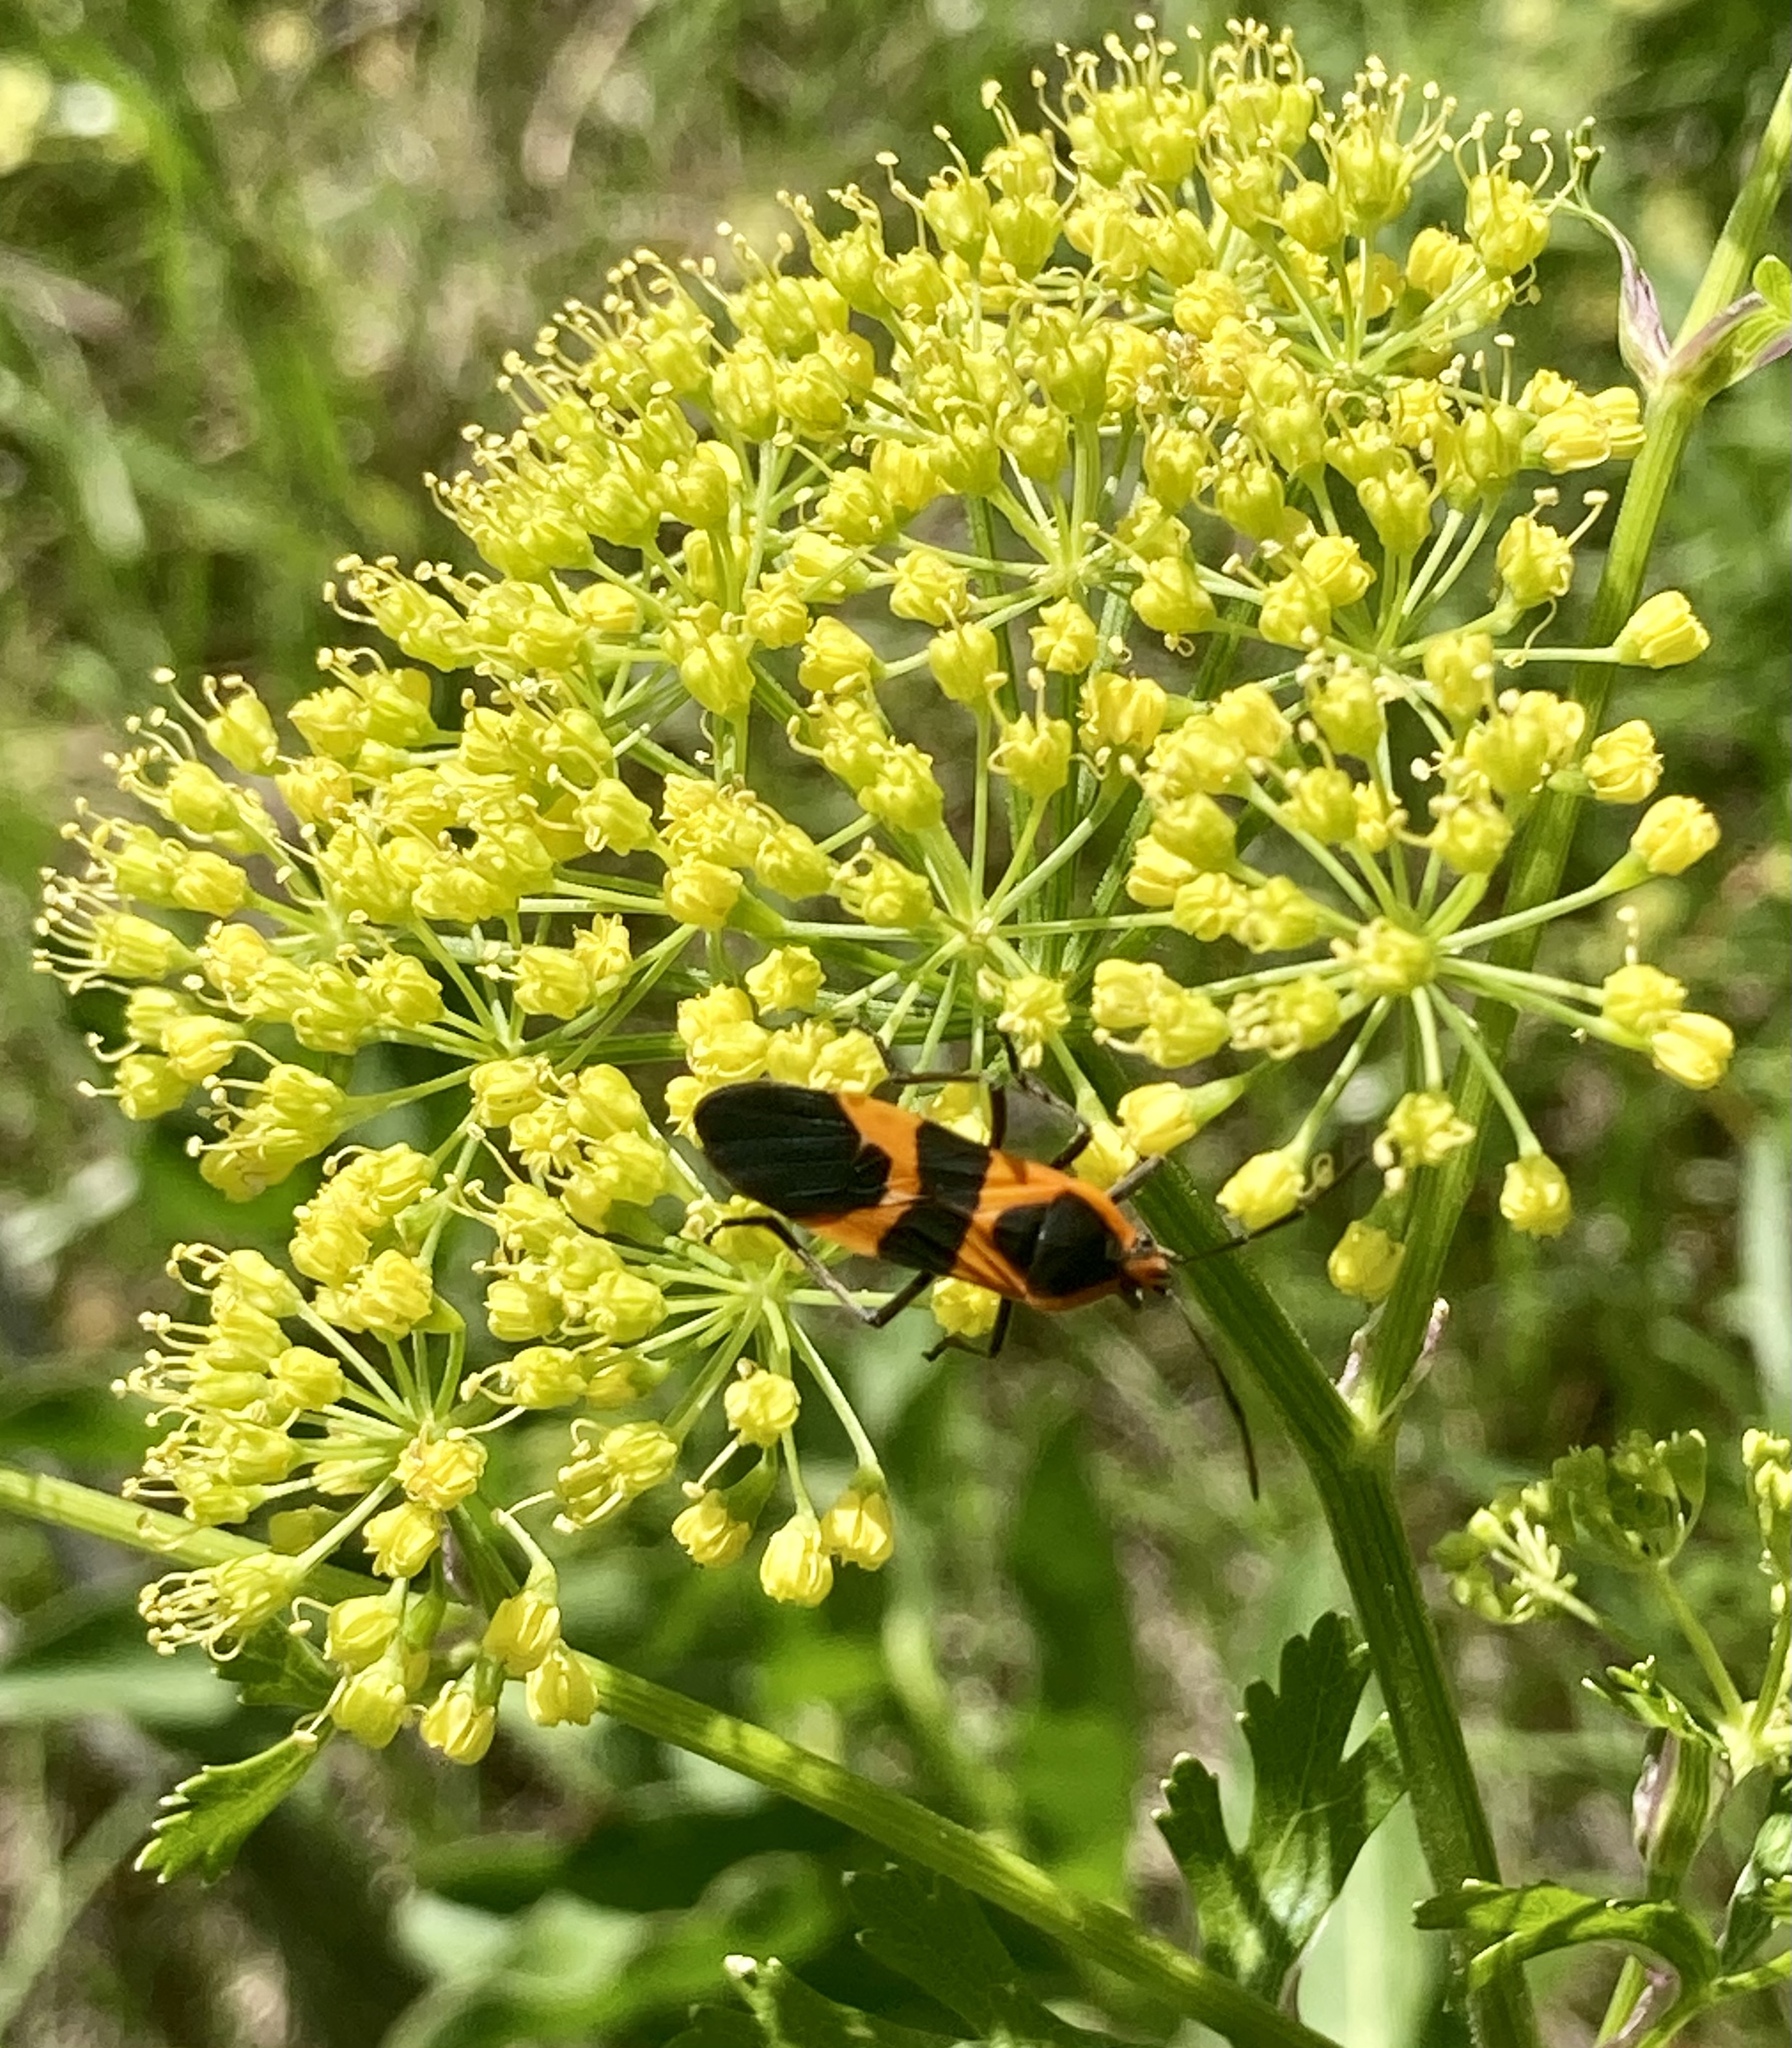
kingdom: Animalia
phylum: Arthropoda
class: Insecta
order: Hemiptera
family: Lygaeidae
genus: Oncopeltus
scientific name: Oncopeltus fasciatus
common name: Large milkweed bug
